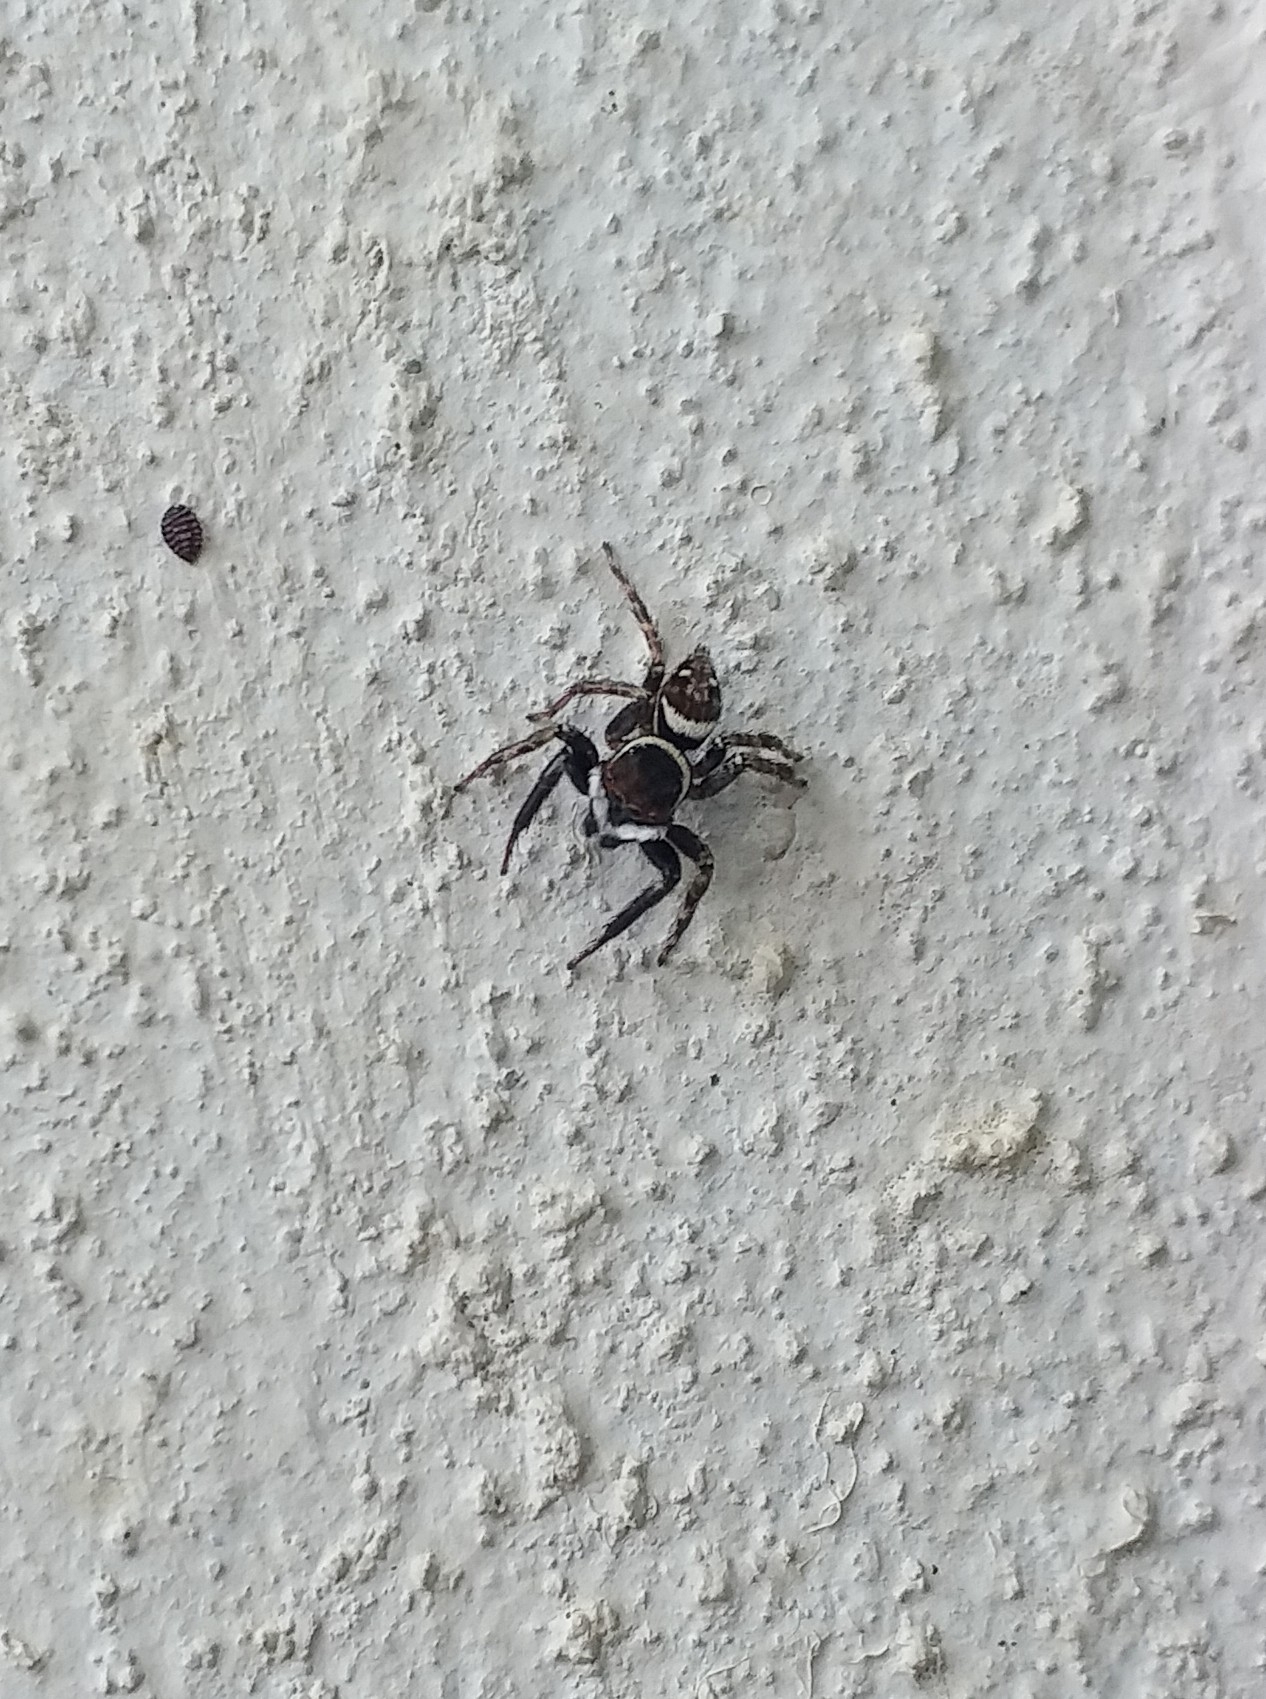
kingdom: Animalia
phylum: Arthropoda
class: Arachnida
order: Araneae
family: Salticidae
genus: Hasarius
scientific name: Hasarius adansoni
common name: Jumping spider
